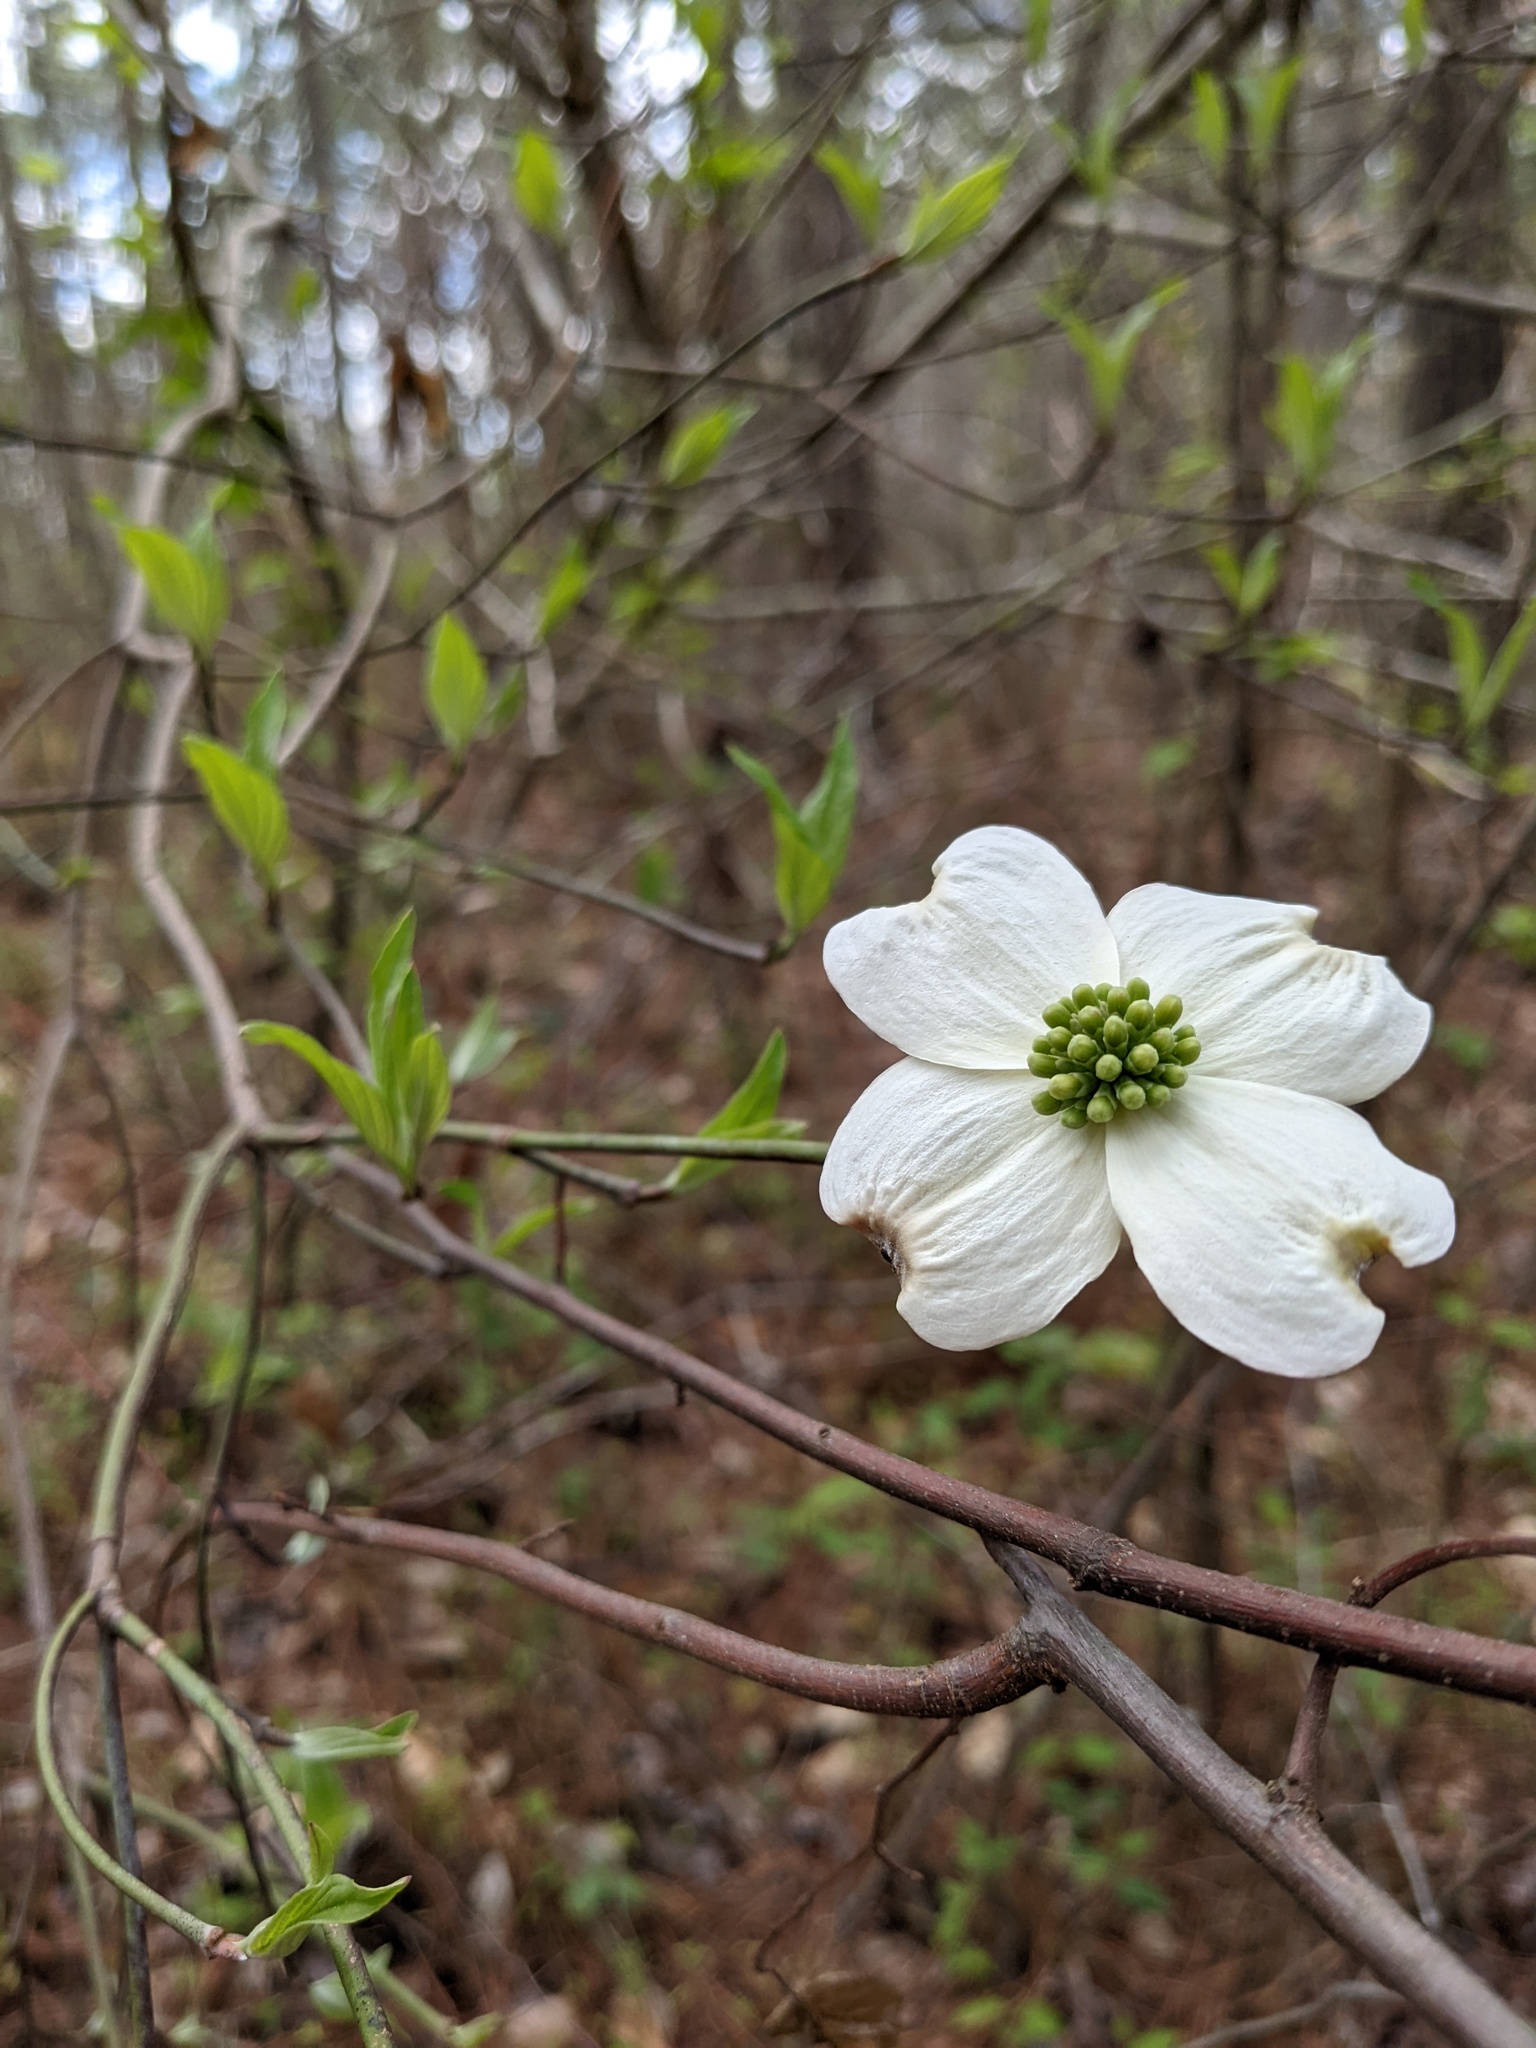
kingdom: Plantae
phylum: Tracheophyta
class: Magnoliopsida
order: Cornales
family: Cornaceae
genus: Cornus
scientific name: Cornus florida
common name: Flowering dogwood
